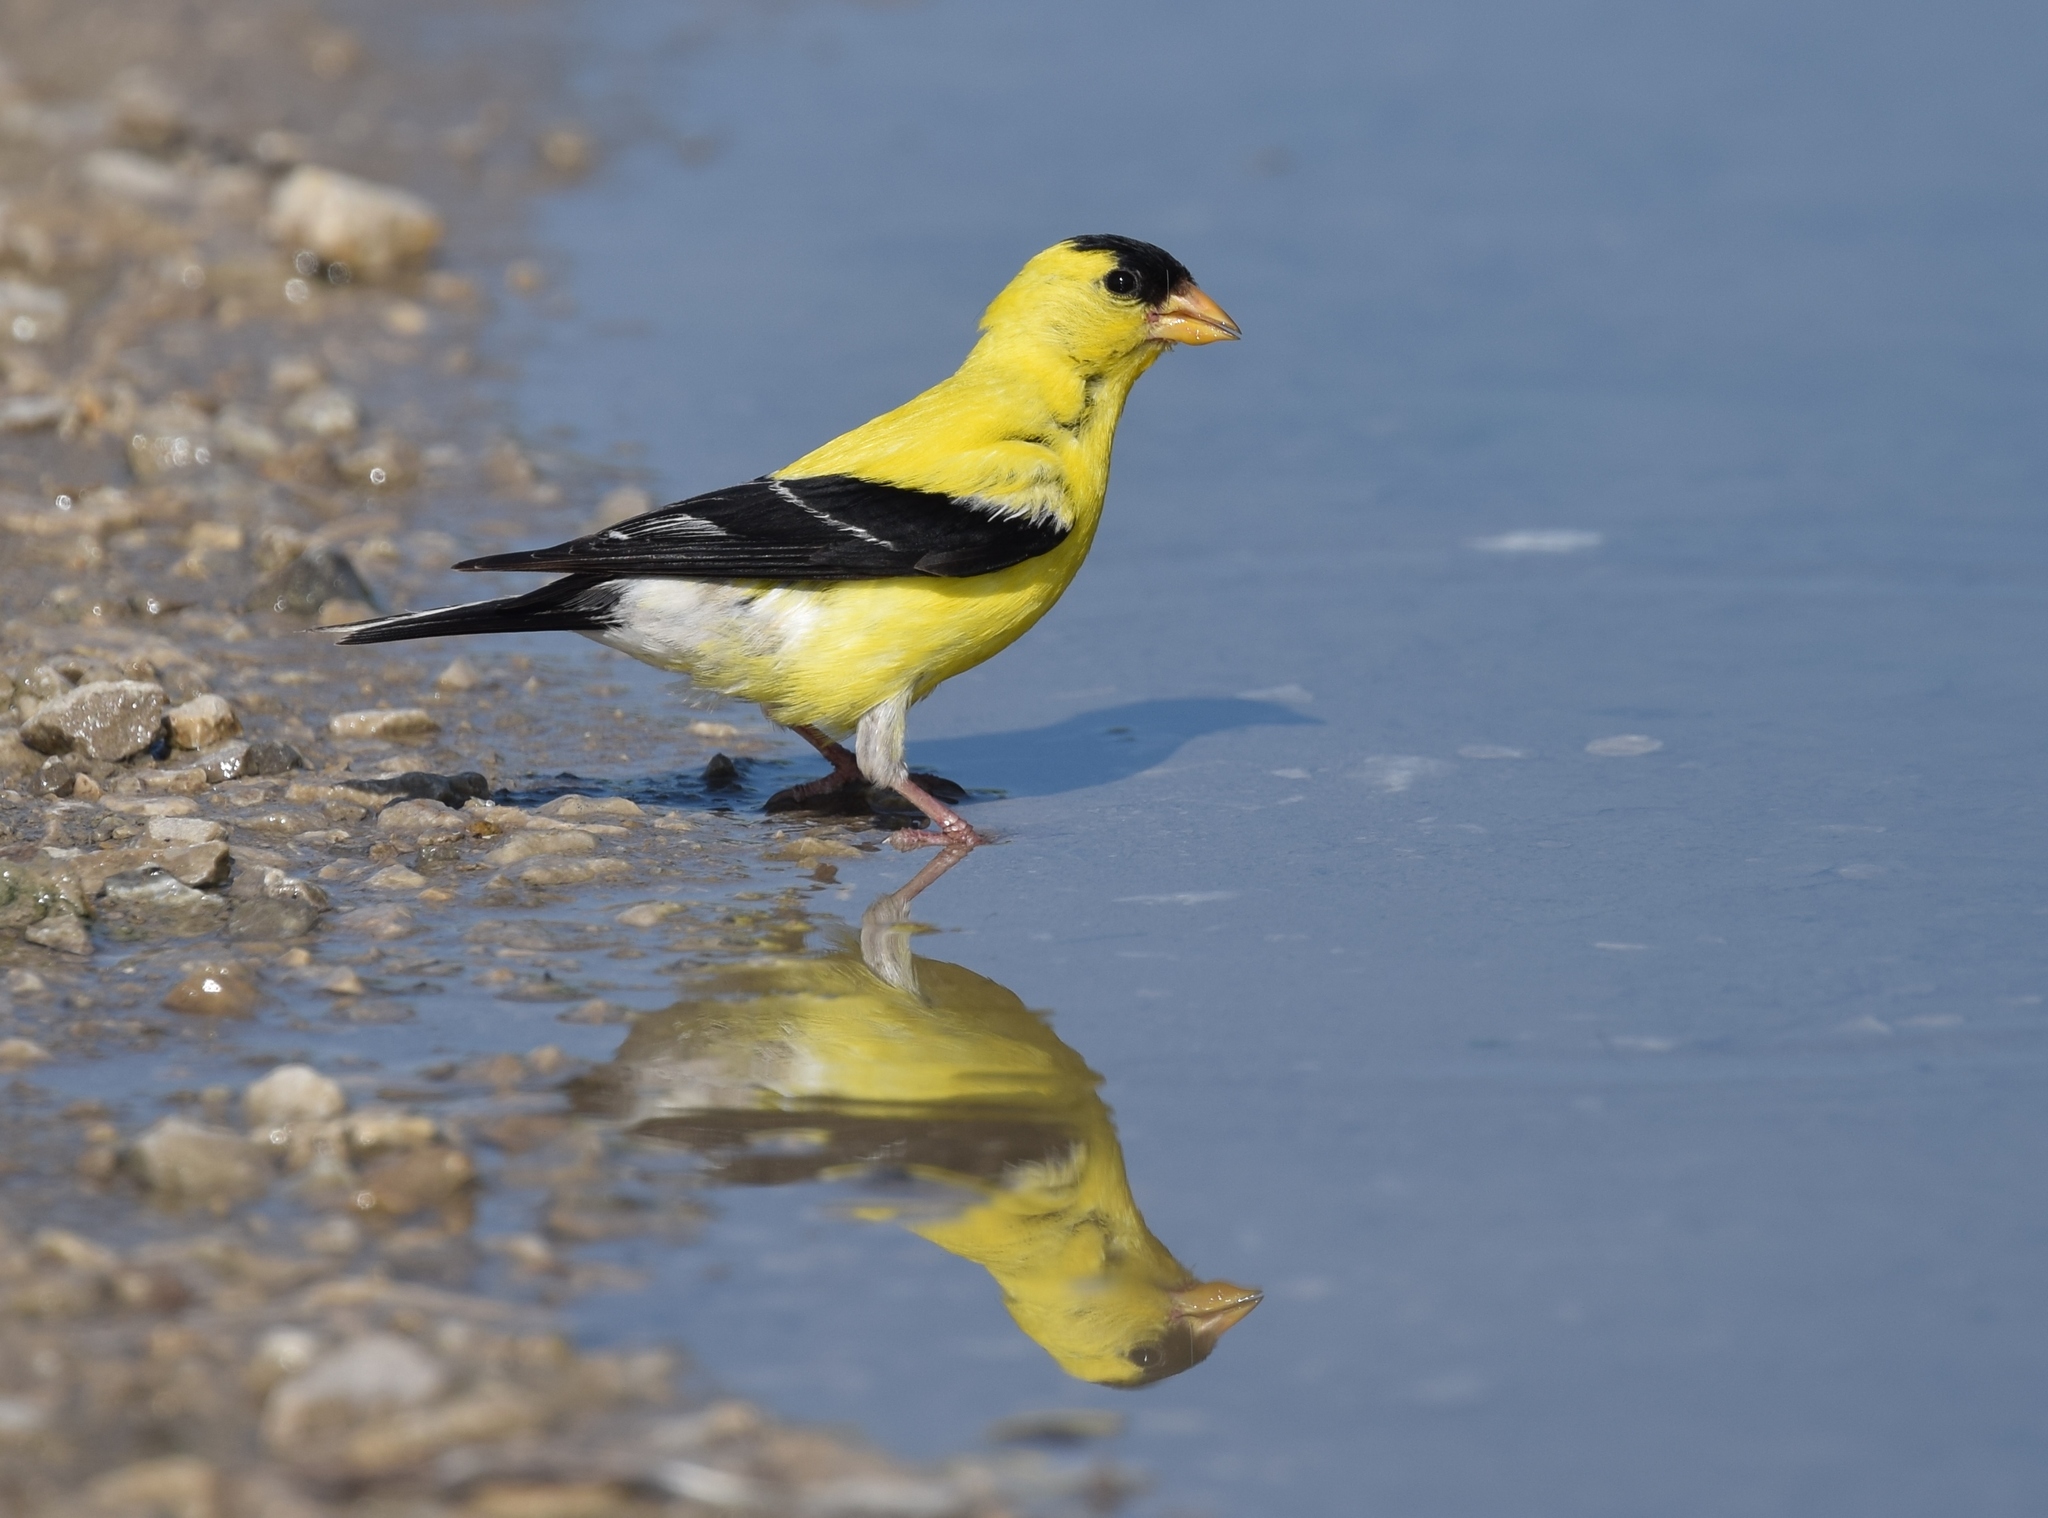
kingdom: Animalia
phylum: Chordata
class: Aves
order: Passeriformes
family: Fringillidae
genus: Spinus
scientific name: Spinus tristis
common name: American goldfinch
